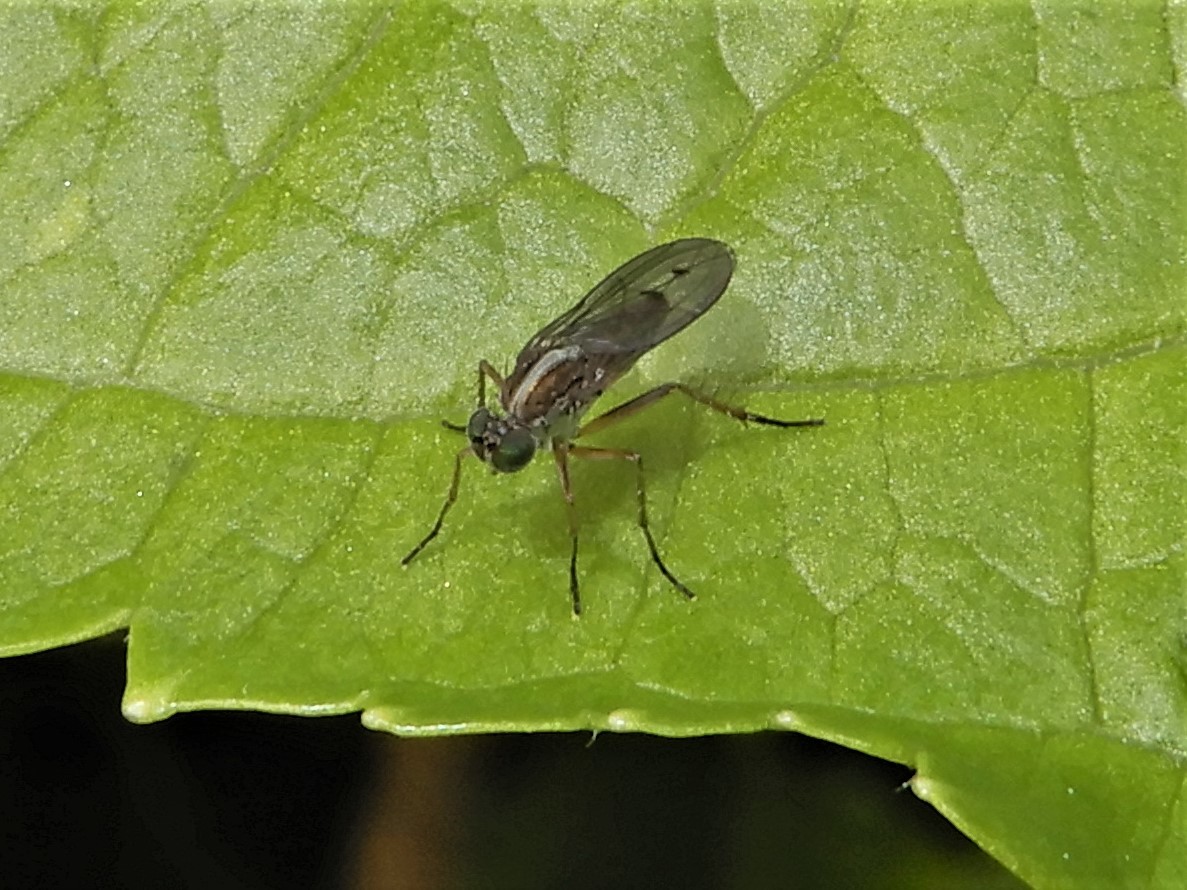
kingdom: Animalia
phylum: Arthropoda
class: Insecta
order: Diptera
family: Dolichopodidae
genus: Tetrachaetus
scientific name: Tetrachaetus bipunctatus
